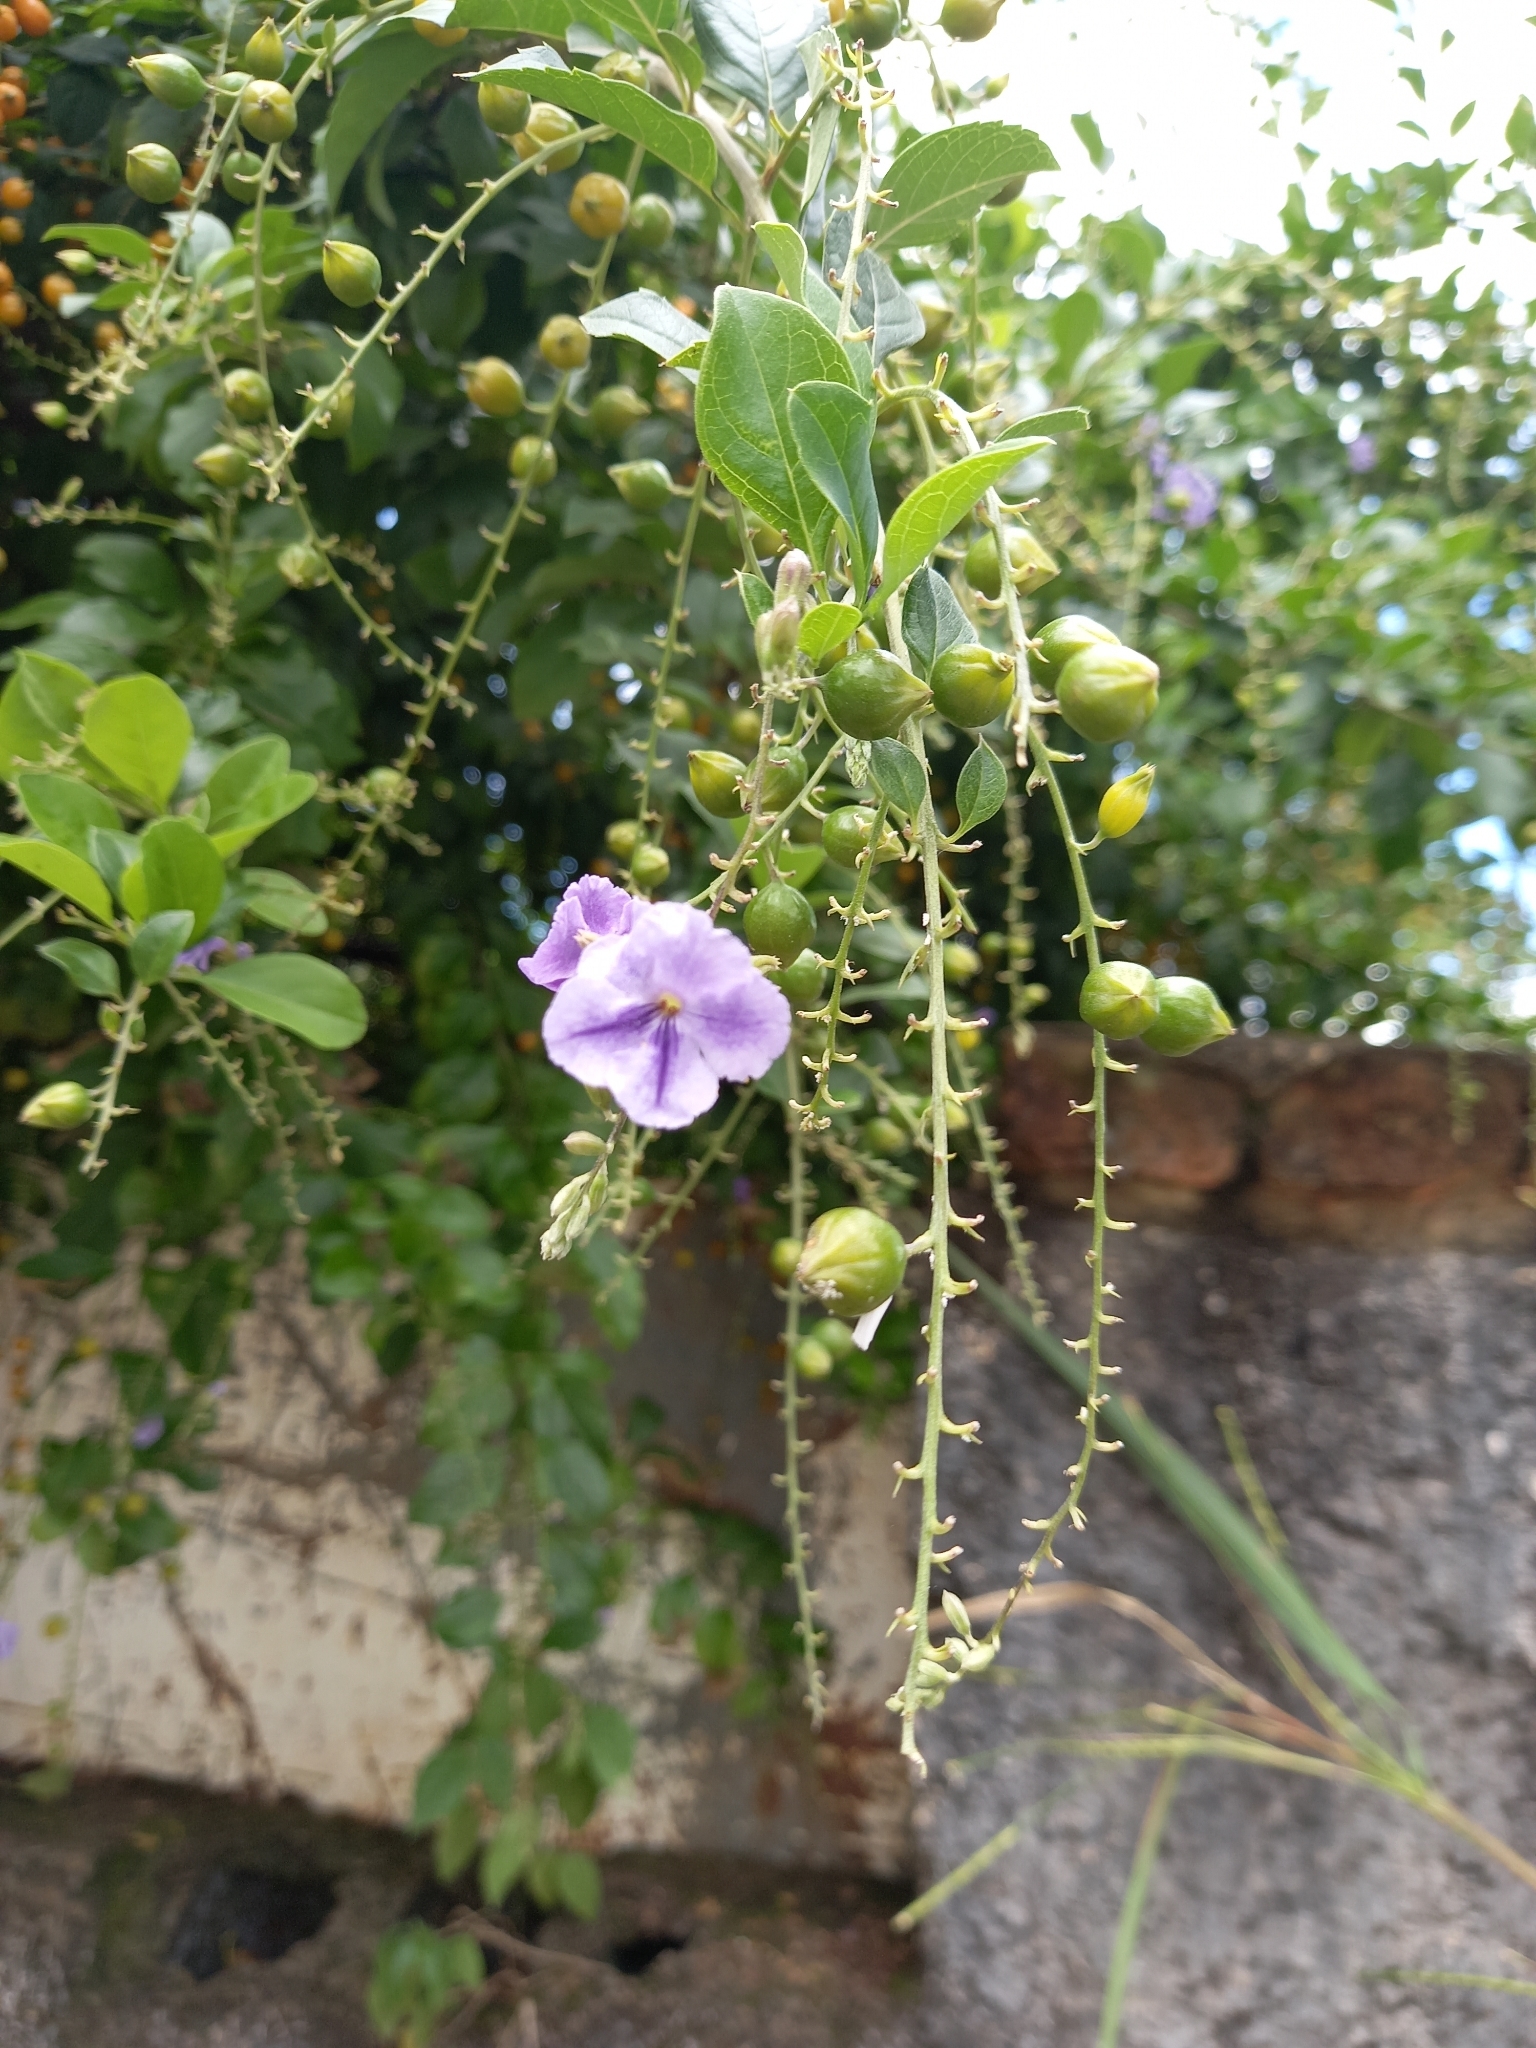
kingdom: Plantae
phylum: Tracheophyta
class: Magnoliopsida
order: Lamiales
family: Verbenaceae
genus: Duranta
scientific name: Duranta erecta
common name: Golden dewdrops
